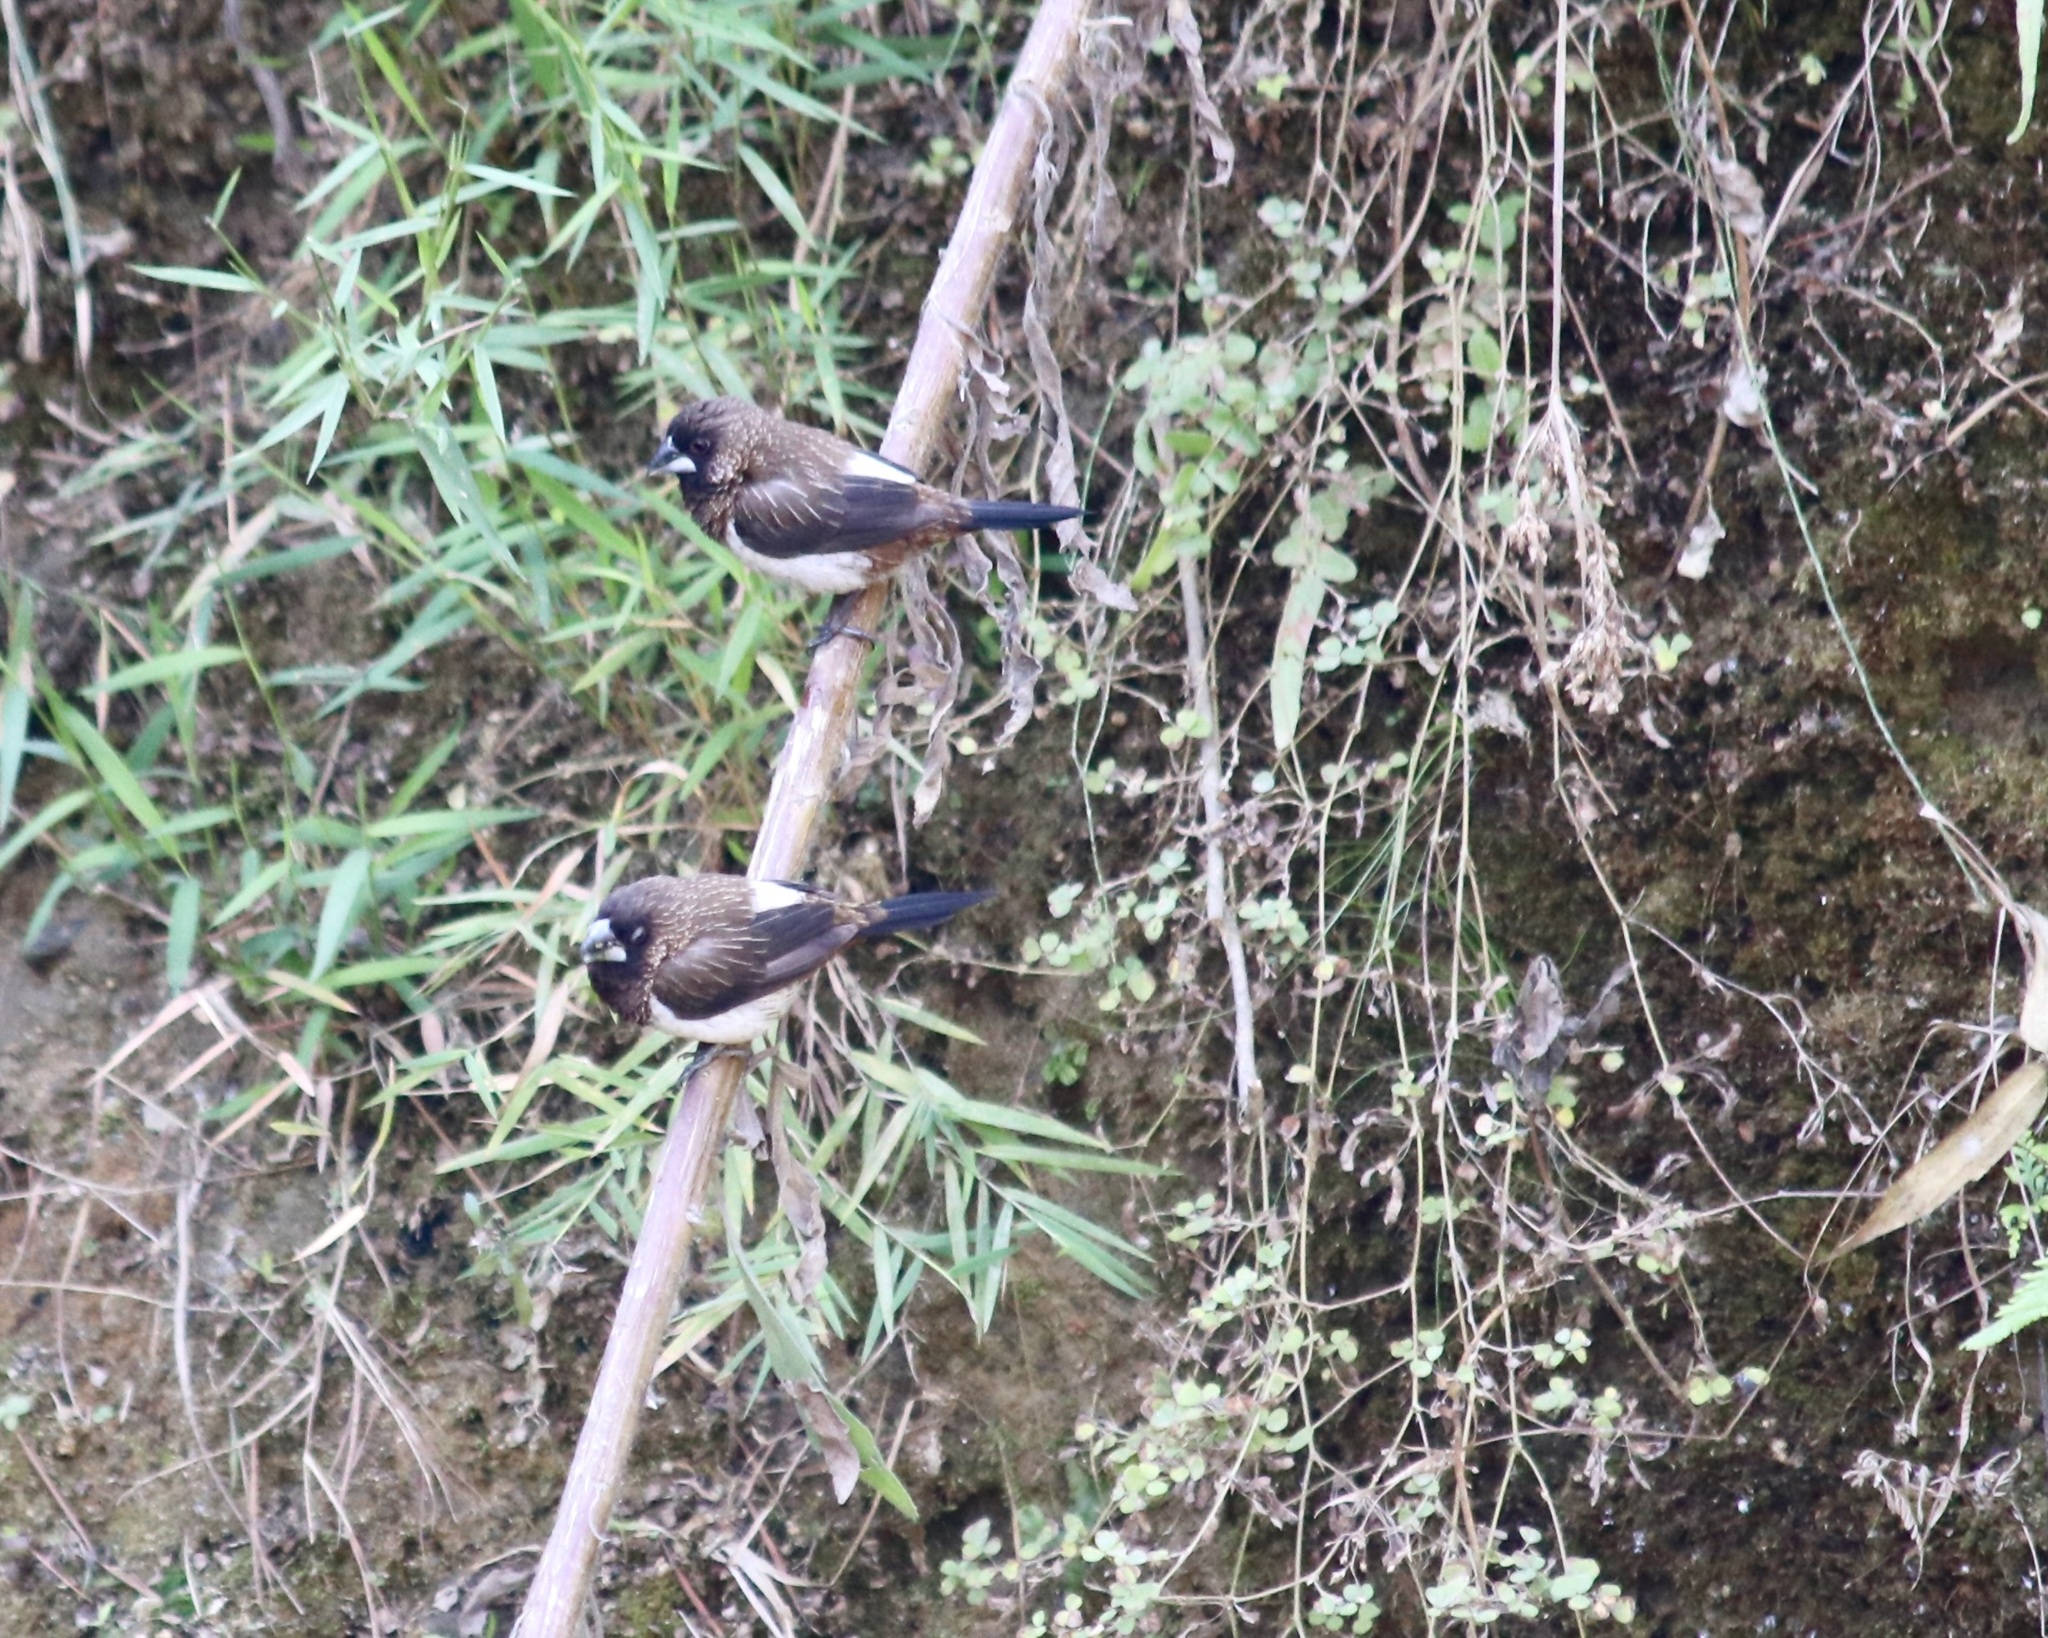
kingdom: Animalia
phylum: Chordata
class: Aves
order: Passeriformes
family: Estrildidae
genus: Lonchura
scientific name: Lonchura striata
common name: White-rumped munia
